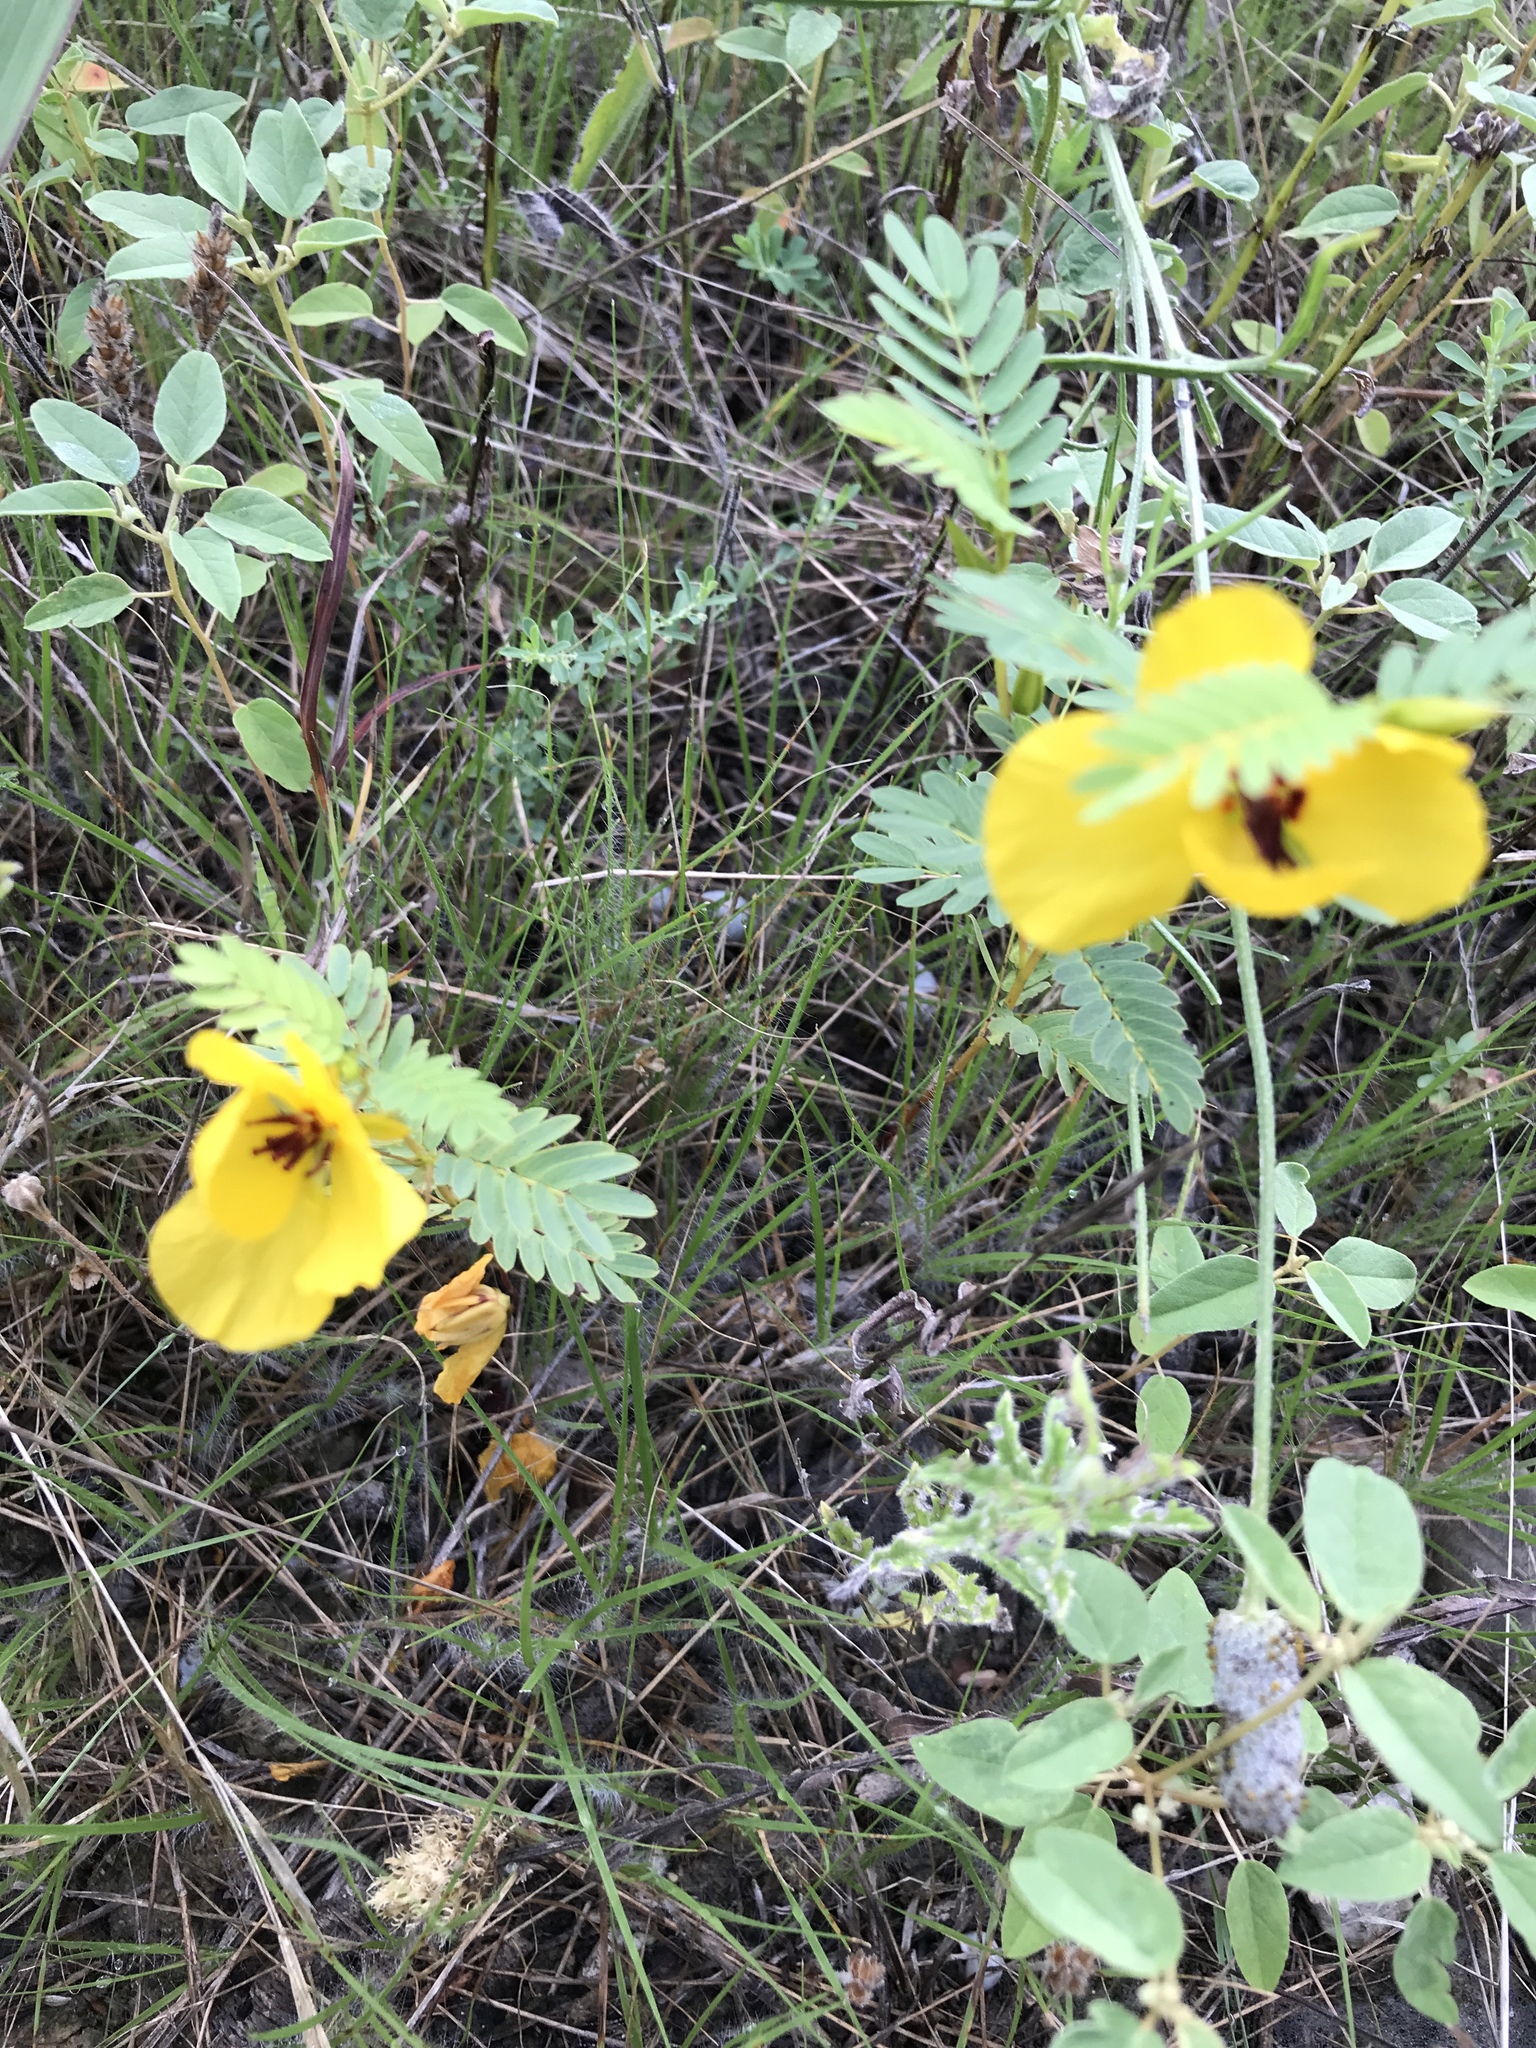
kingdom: Plantae
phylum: Tracheophyta
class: Magnoliopsida
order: Fabales
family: Fabaceae
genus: Chamaecrista
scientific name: Chamaecrista fasciculata
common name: Golden cassia
